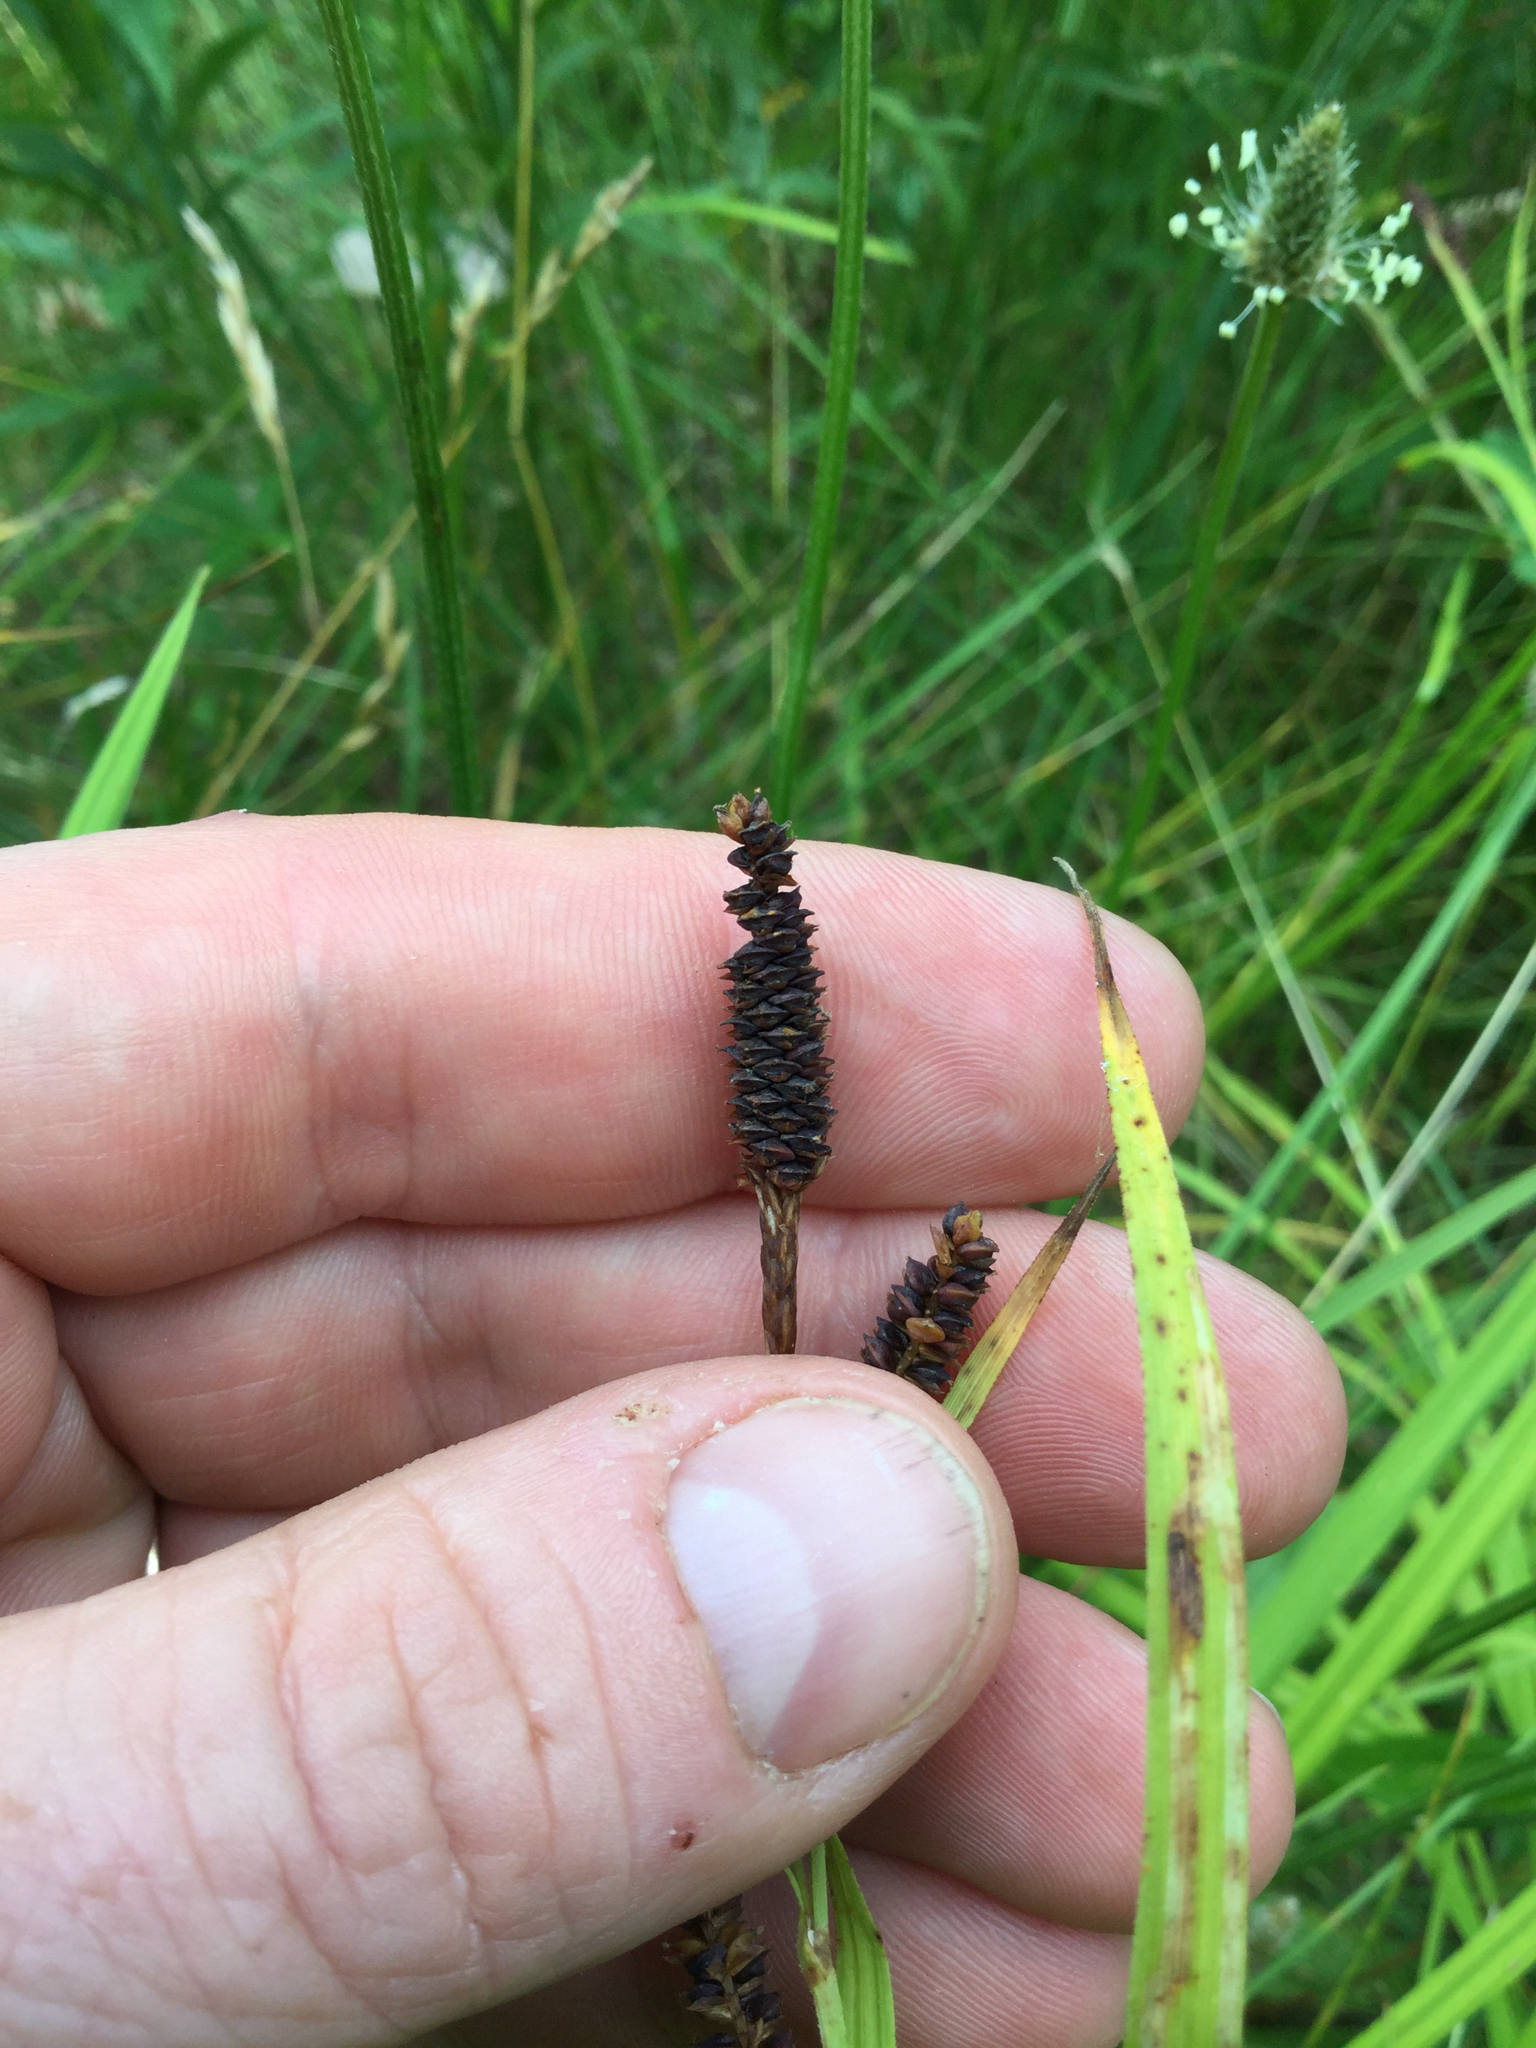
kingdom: Plantae
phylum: Tracheophyta
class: Liliopsida
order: Poales
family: Cyperaceae
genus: Carex
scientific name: Carex shortiana
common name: Short's sedge
